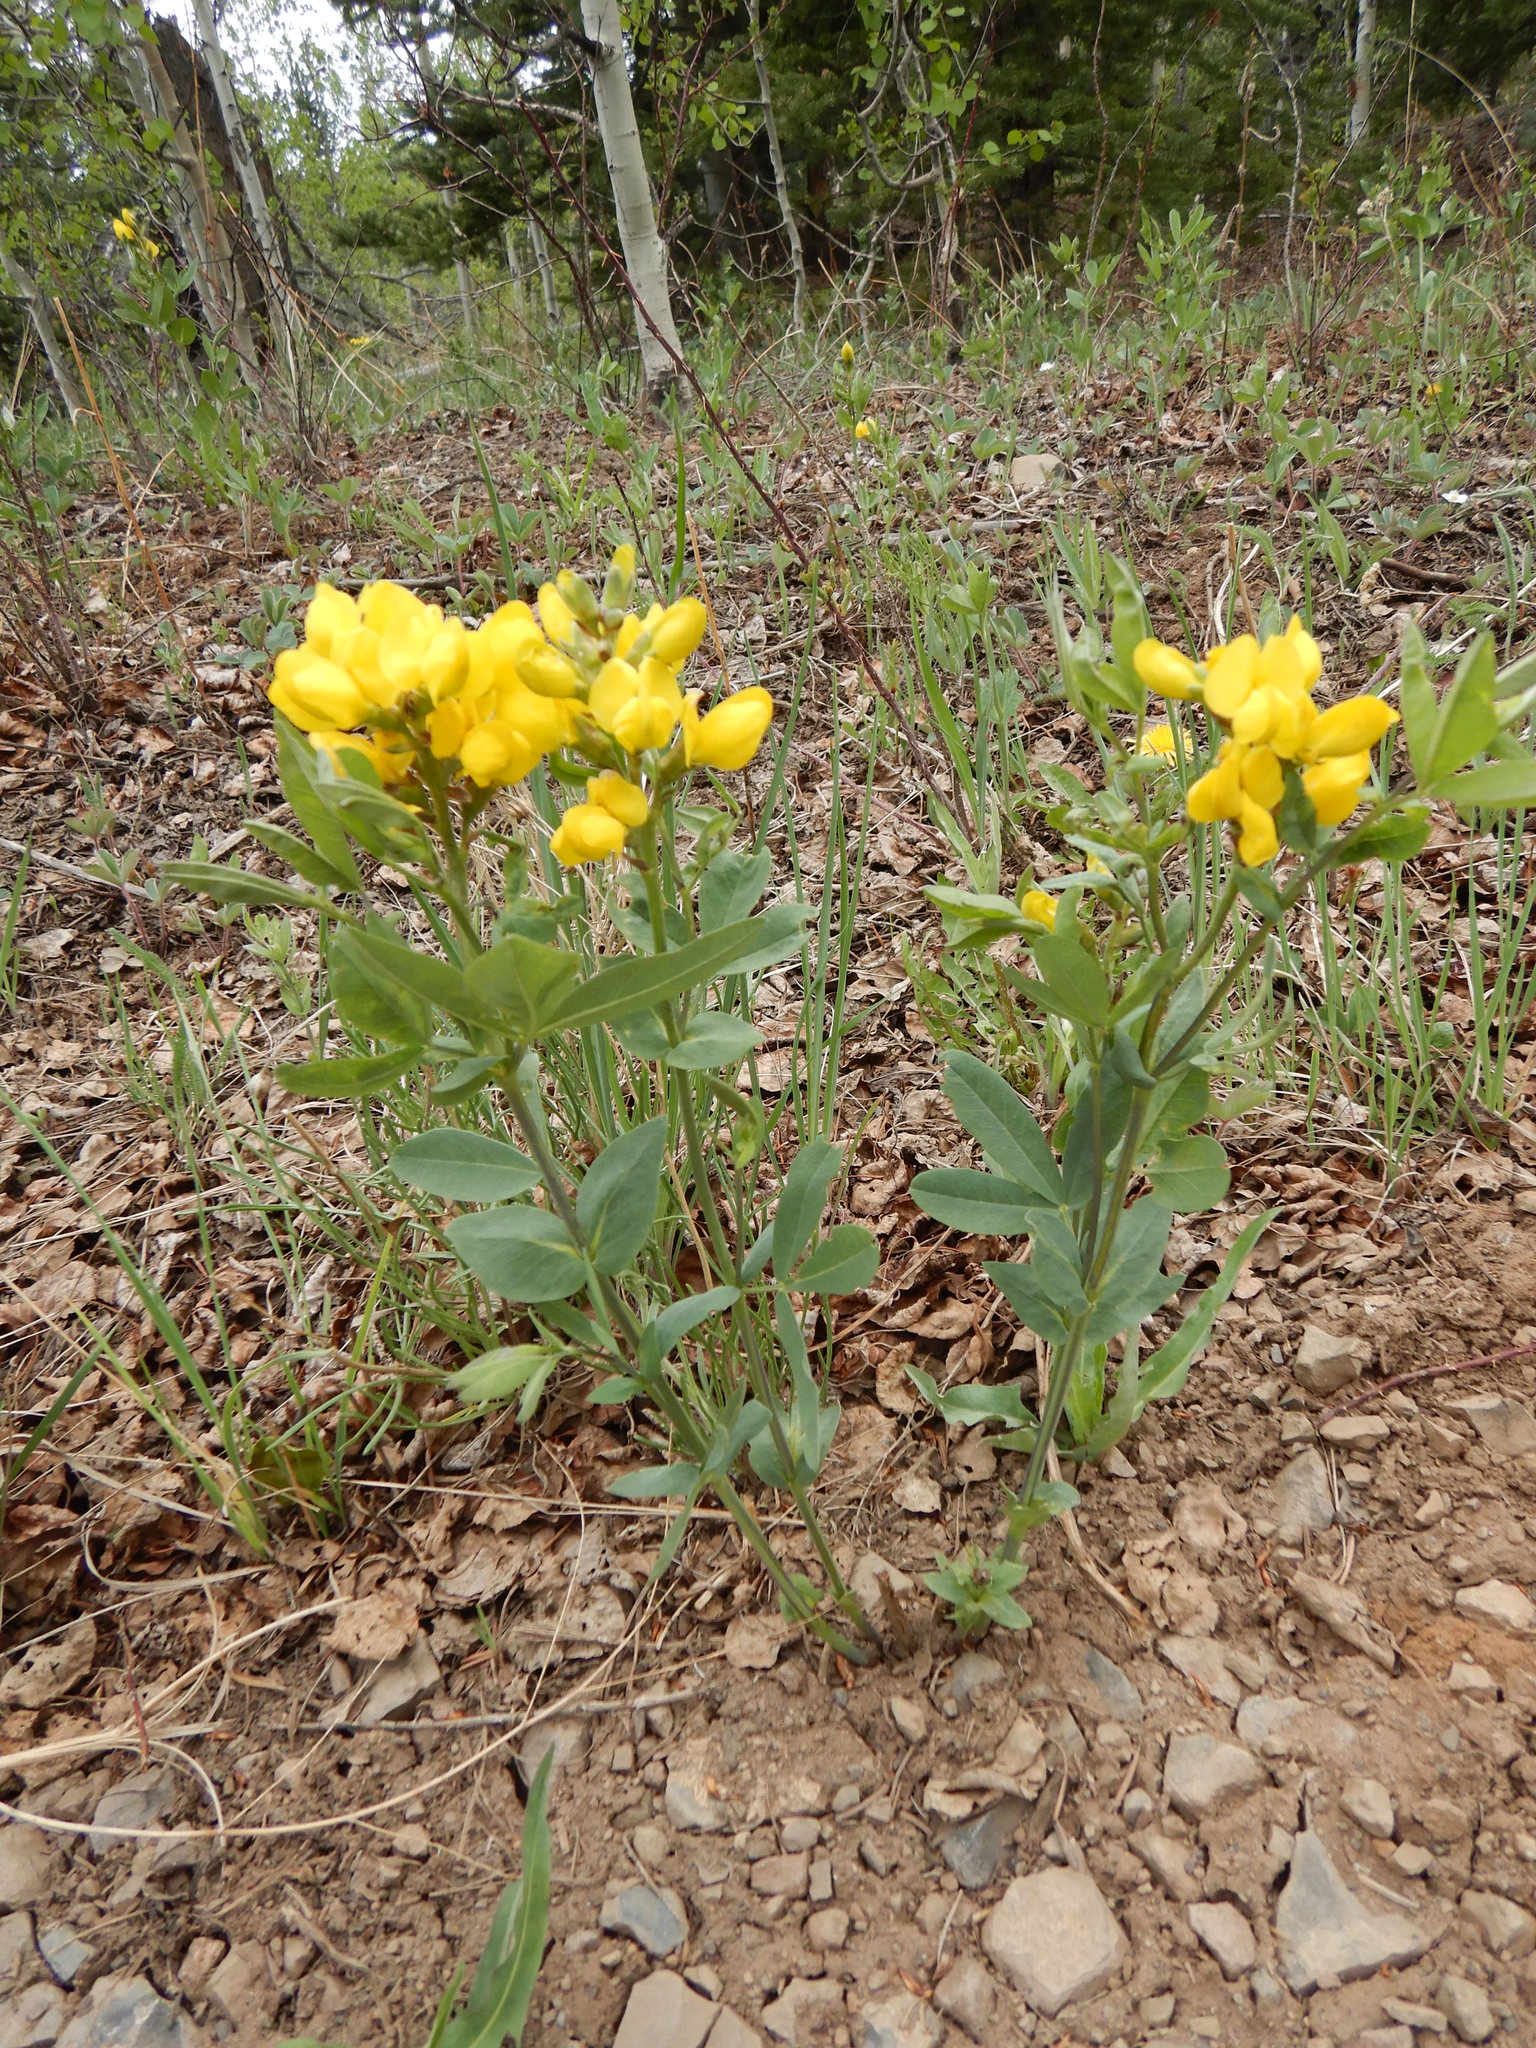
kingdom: Plantae
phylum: Tracheophyta
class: Magnoliopsida
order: Fabales
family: Fabaceae
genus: Thermopsis
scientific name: Thermopsis montana
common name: False lupin
